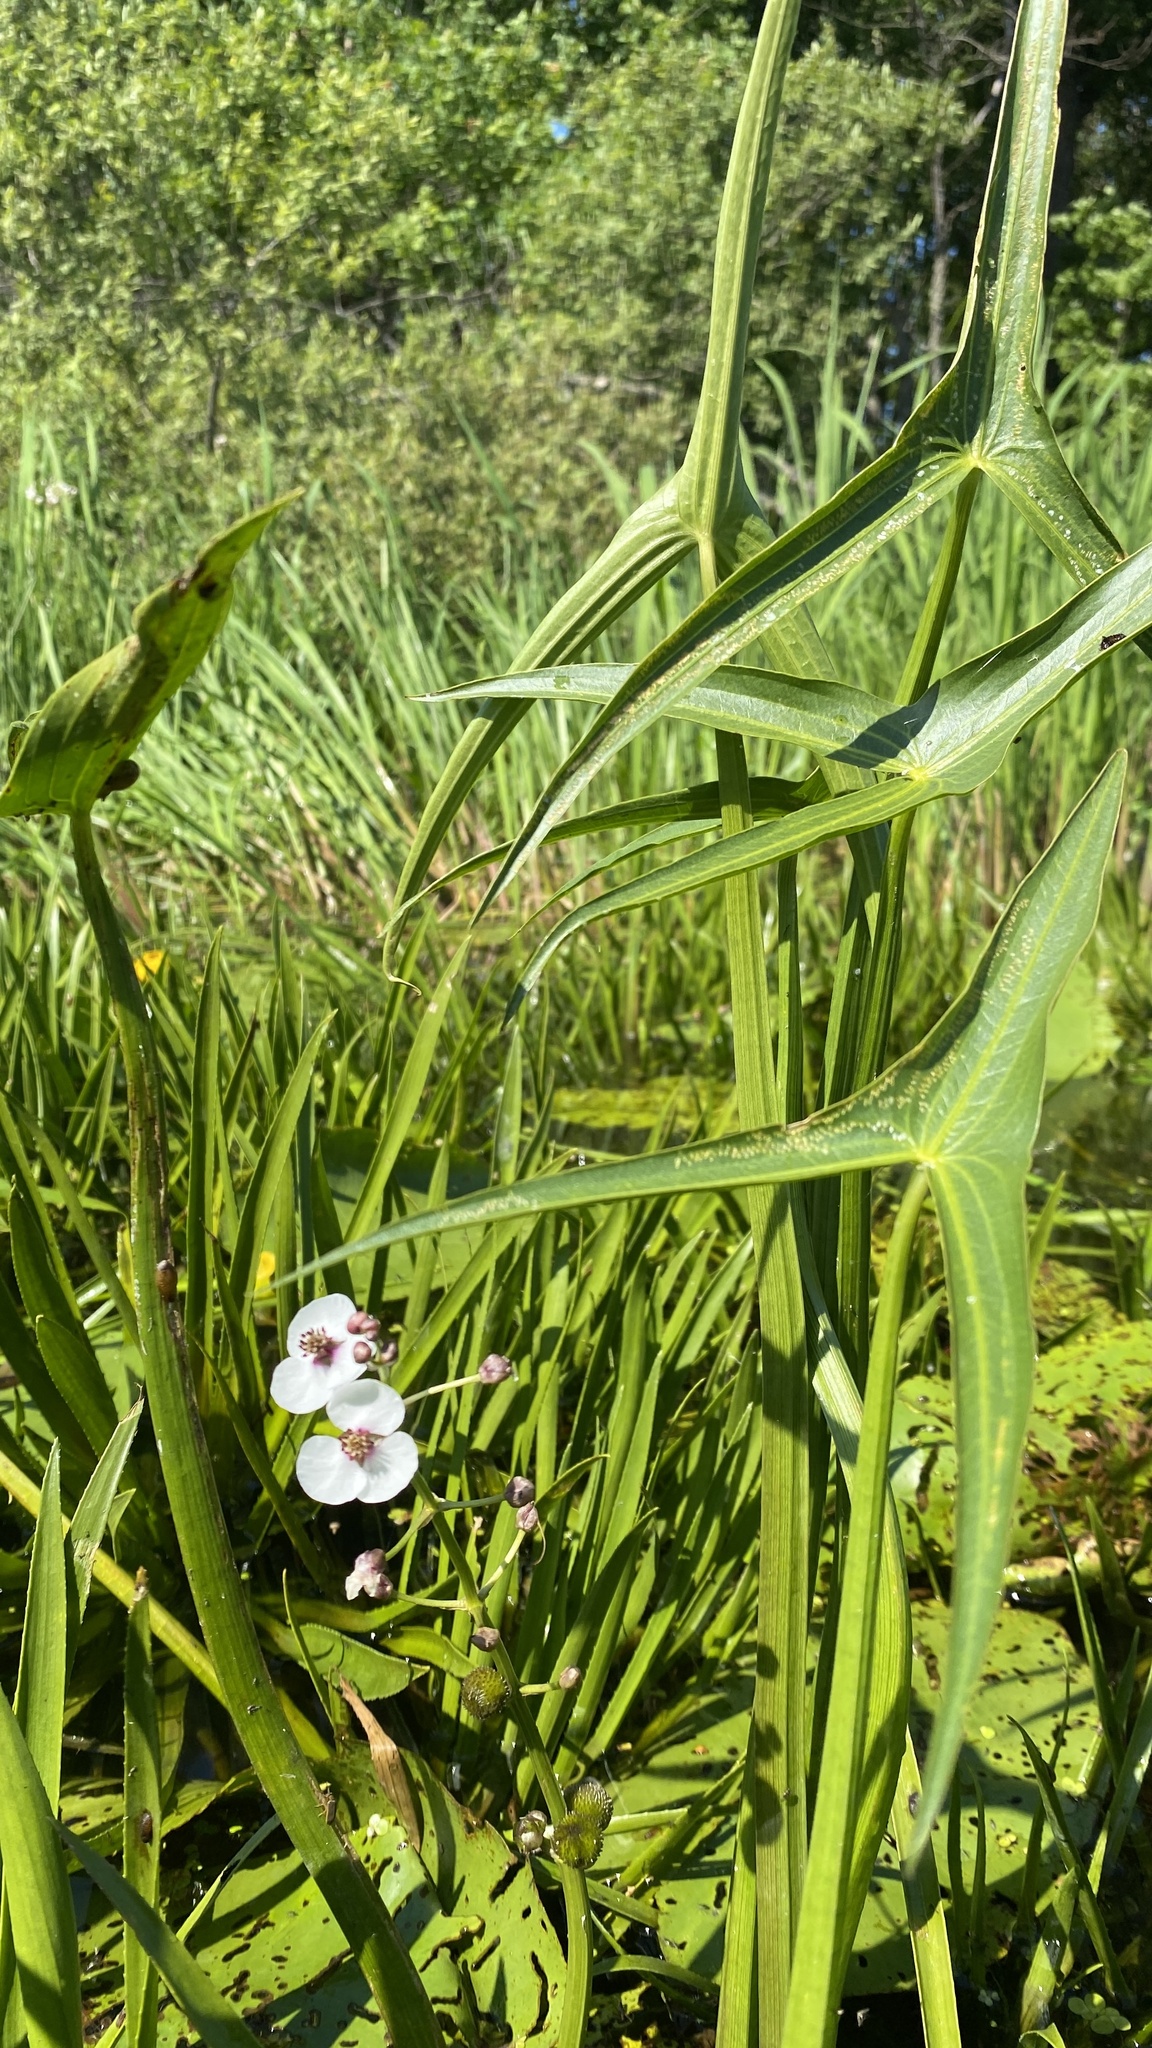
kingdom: Plantae
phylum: Tracheophyta
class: Liliopsida
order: Alismatales
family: Alismataceae
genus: Sagittaria
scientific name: Sagittaria sagittifolia
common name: Arrowhead
